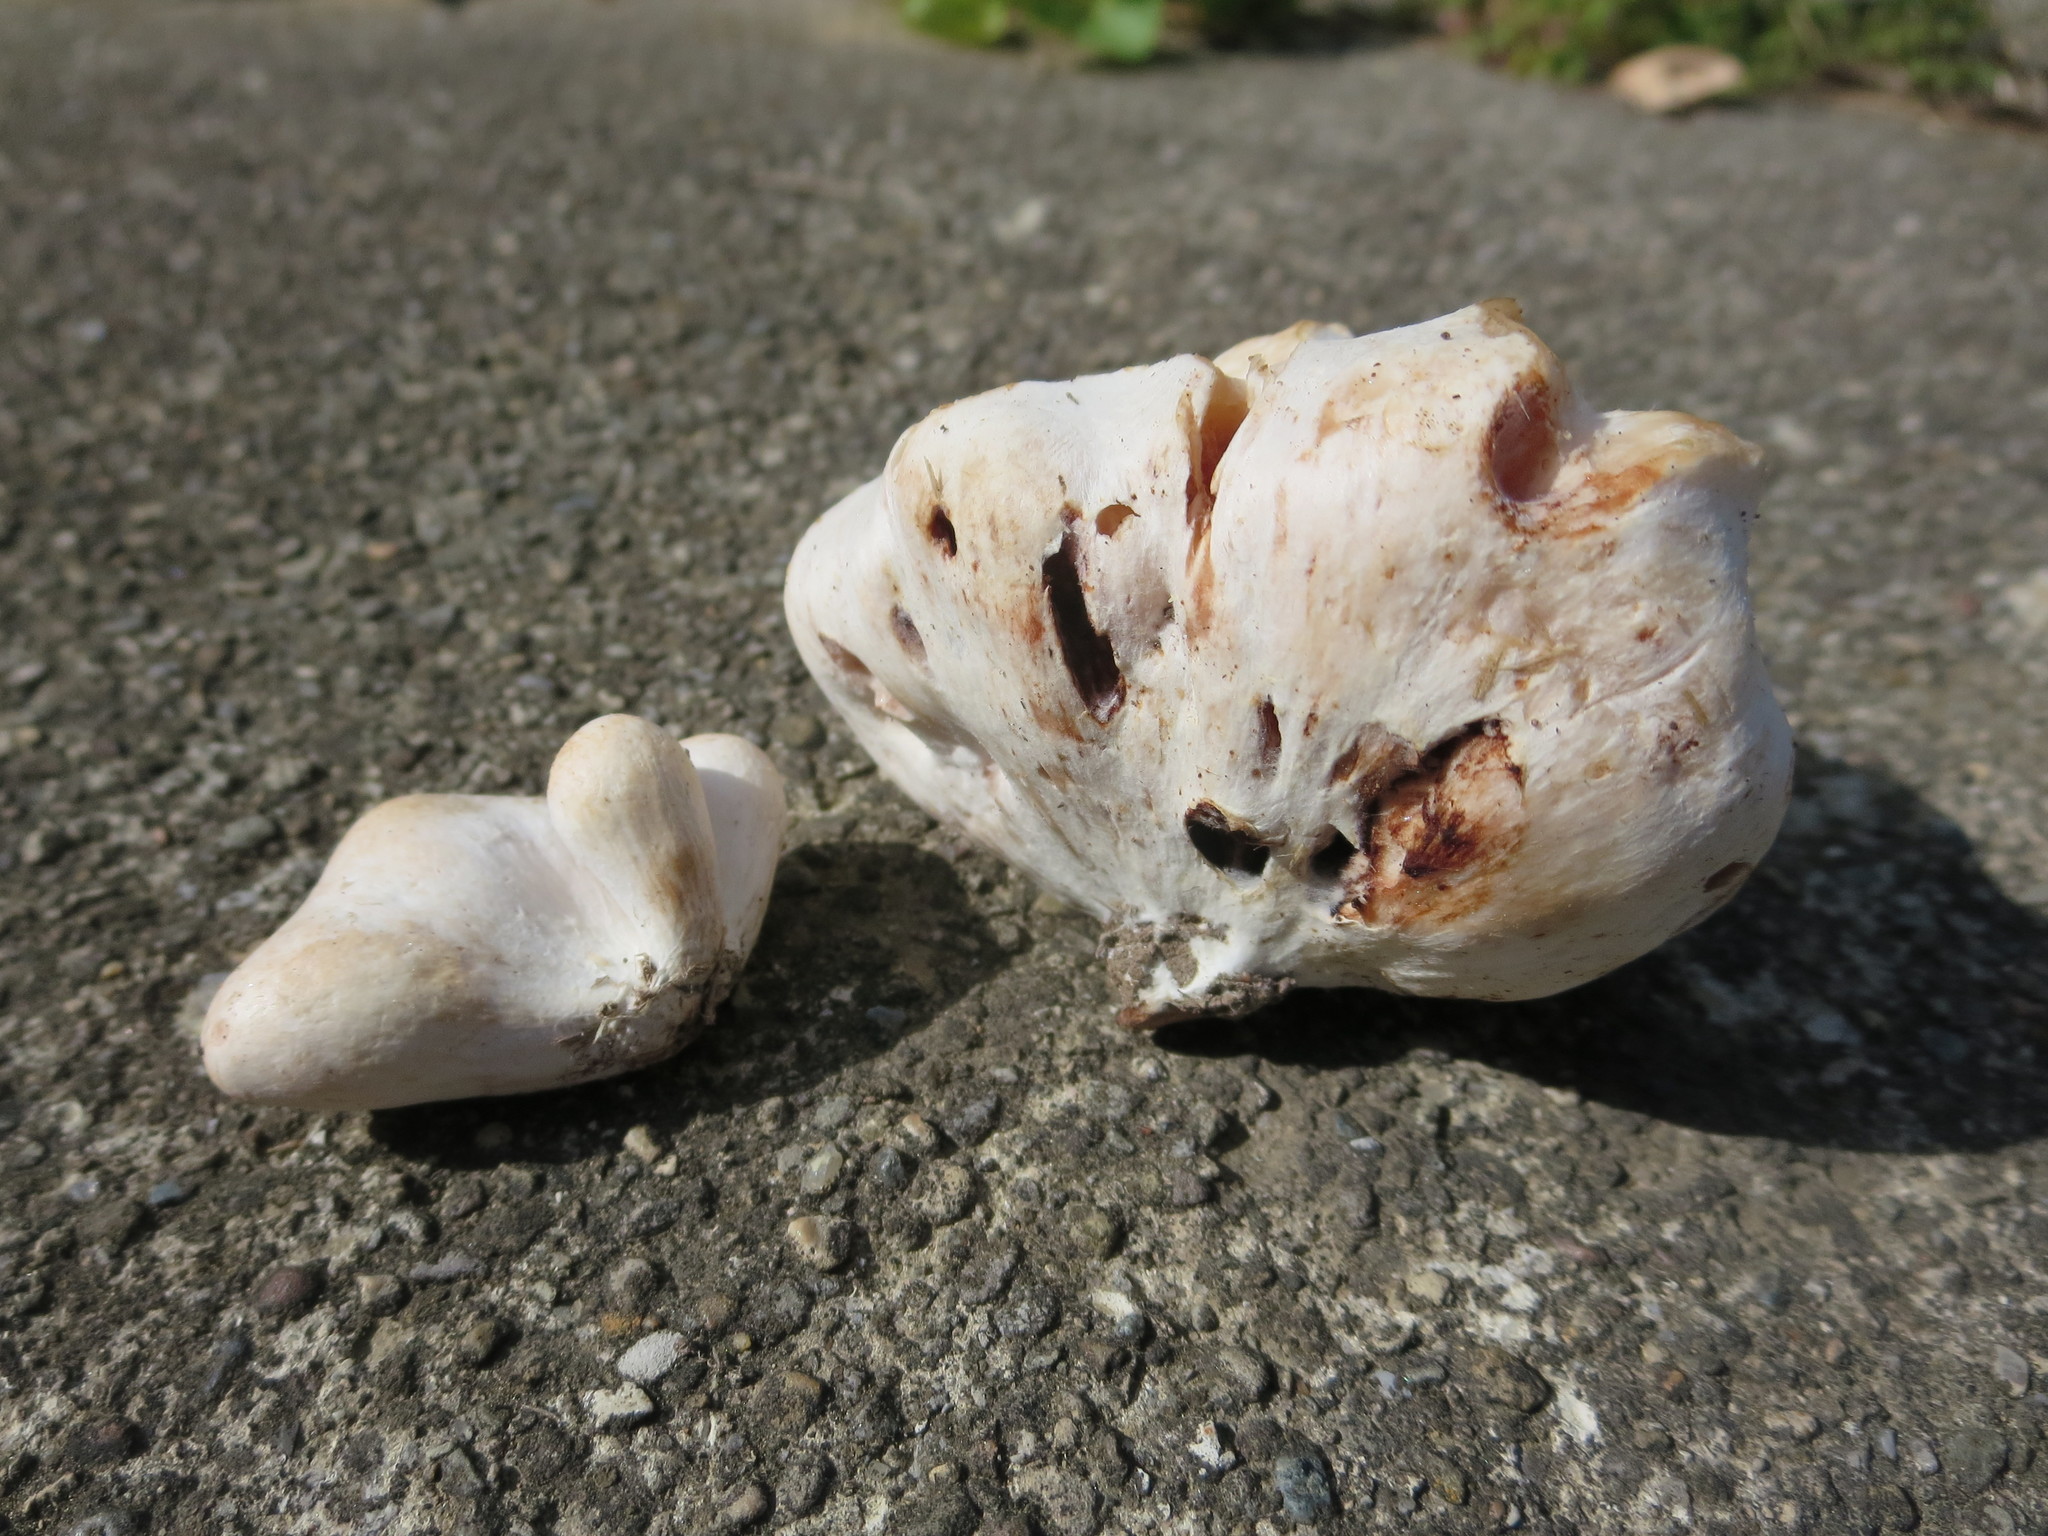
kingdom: Fungi
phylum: Basidiomycota
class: Agaricomycetes
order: Agaricales
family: Entolomataceae
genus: Entoloma
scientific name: Entoloma abortivum
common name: Aborted entoloma
